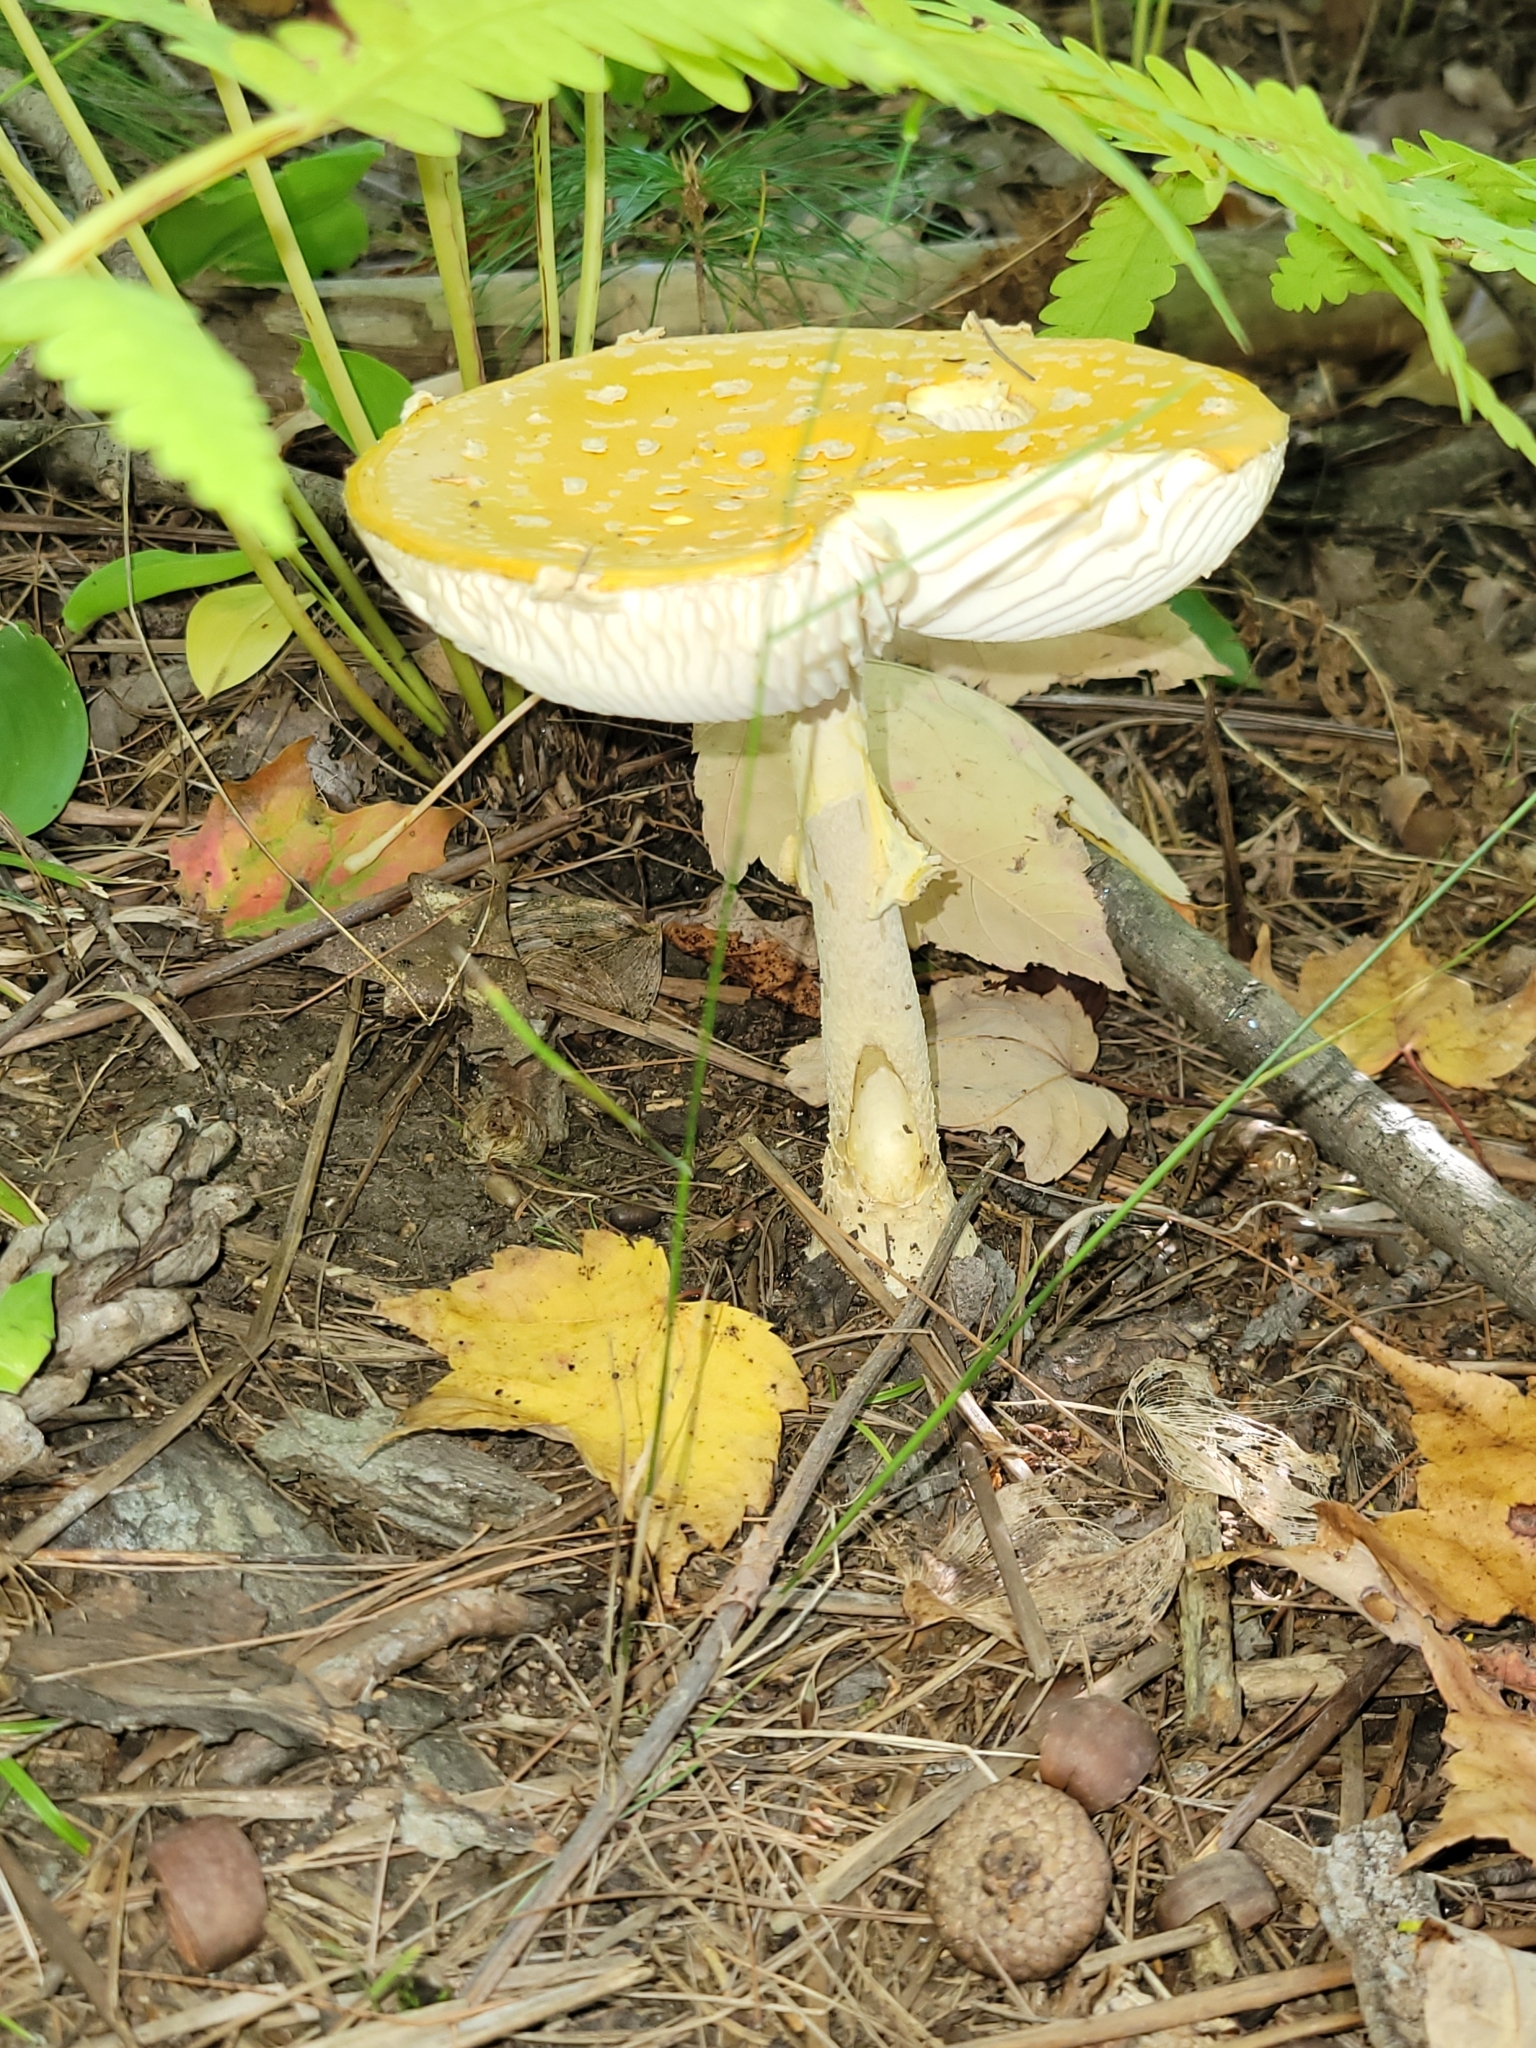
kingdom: Fungi
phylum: Basidiomycota
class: Agaricomycetes
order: Agaricales
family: Amanitaceae
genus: Amanita
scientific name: Amanita muscaria
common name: Fly agaric
